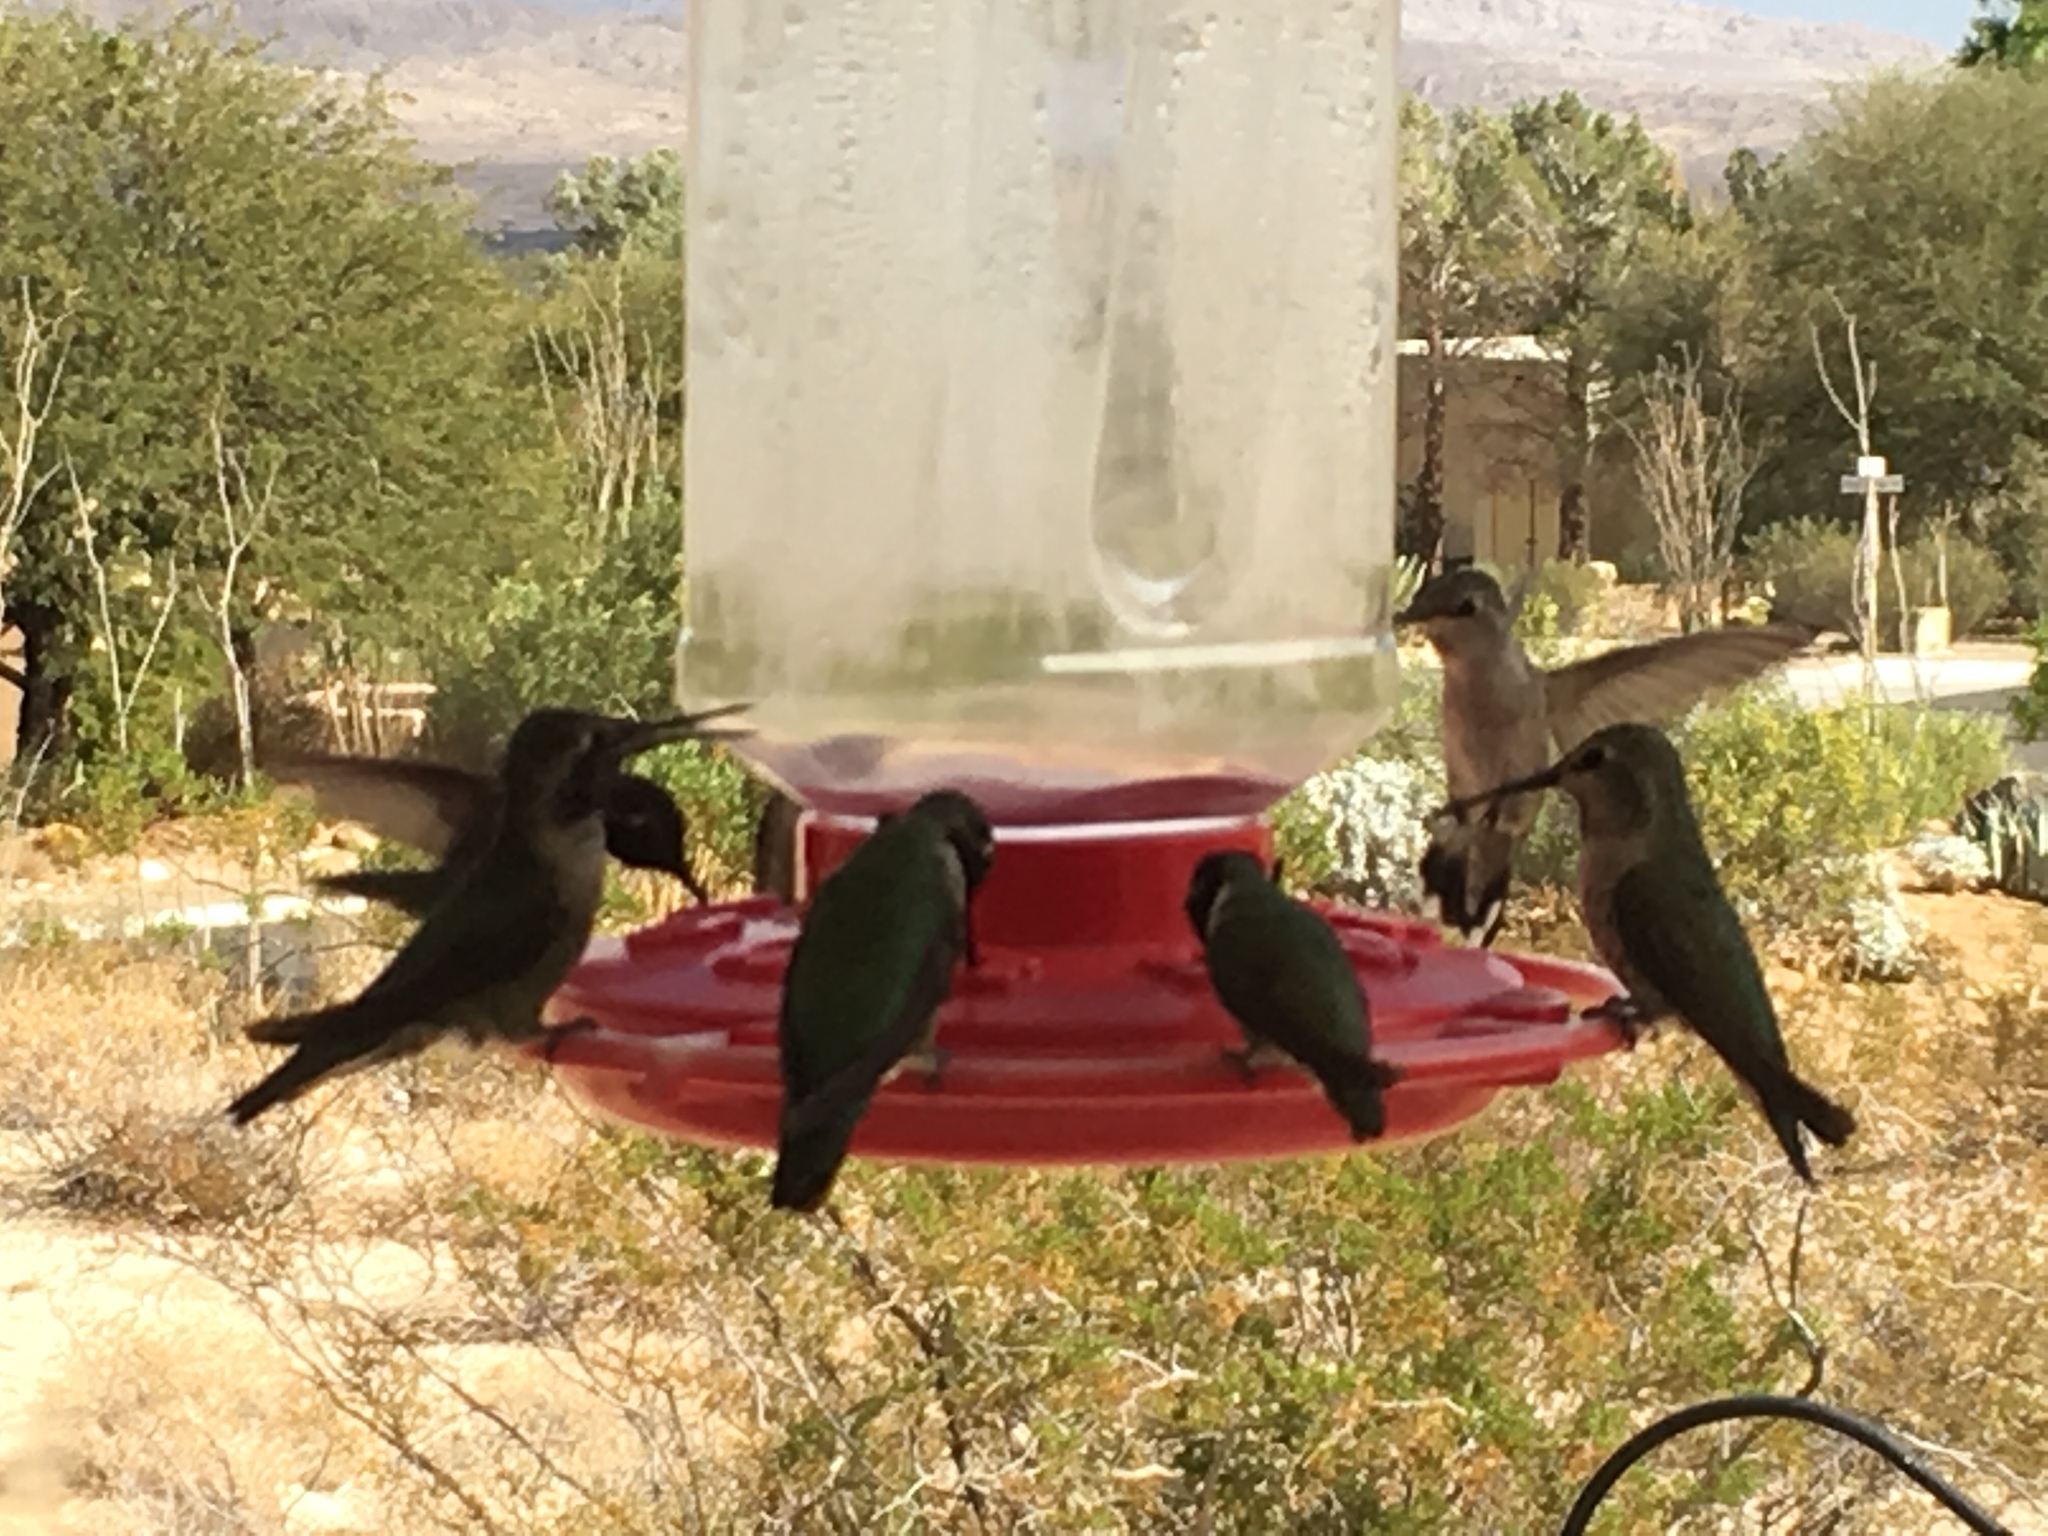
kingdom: Animalia
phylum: Chordata
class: Aves
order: Apodiformes
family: Trochilidae
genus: Calypte
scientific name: Calypte anna
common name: Anna's hummingbird
